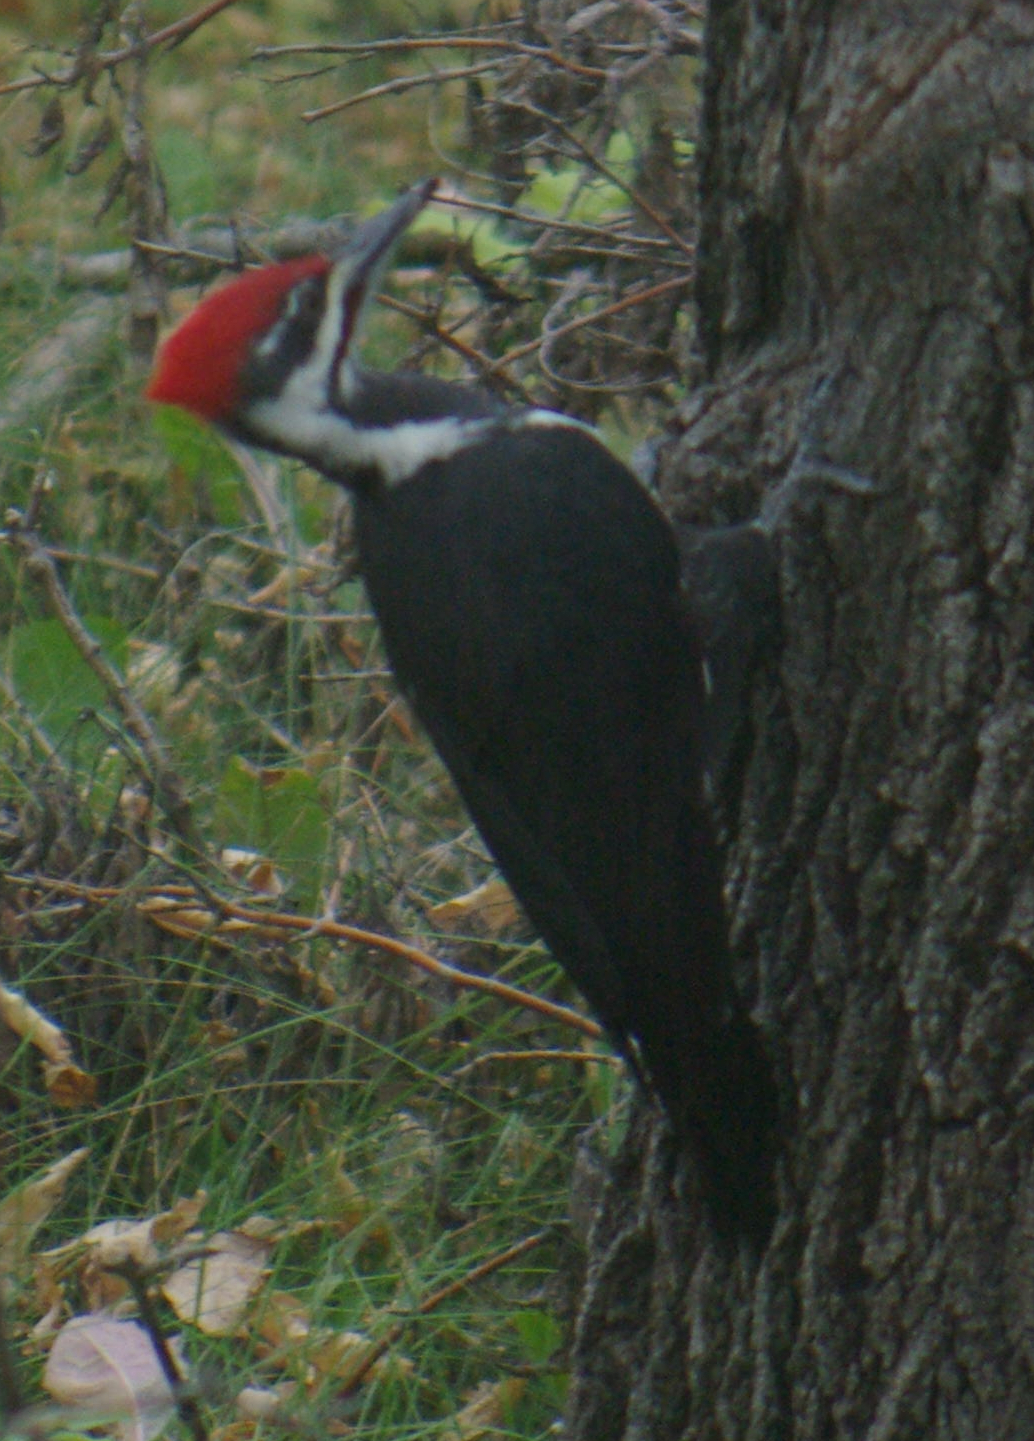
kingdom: Animalia
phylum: Chordata
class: Aves
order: Piciformes
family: Picidae
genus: Dryocopus
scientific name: Dryocopus pileatus
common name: Pileated woodpecker
